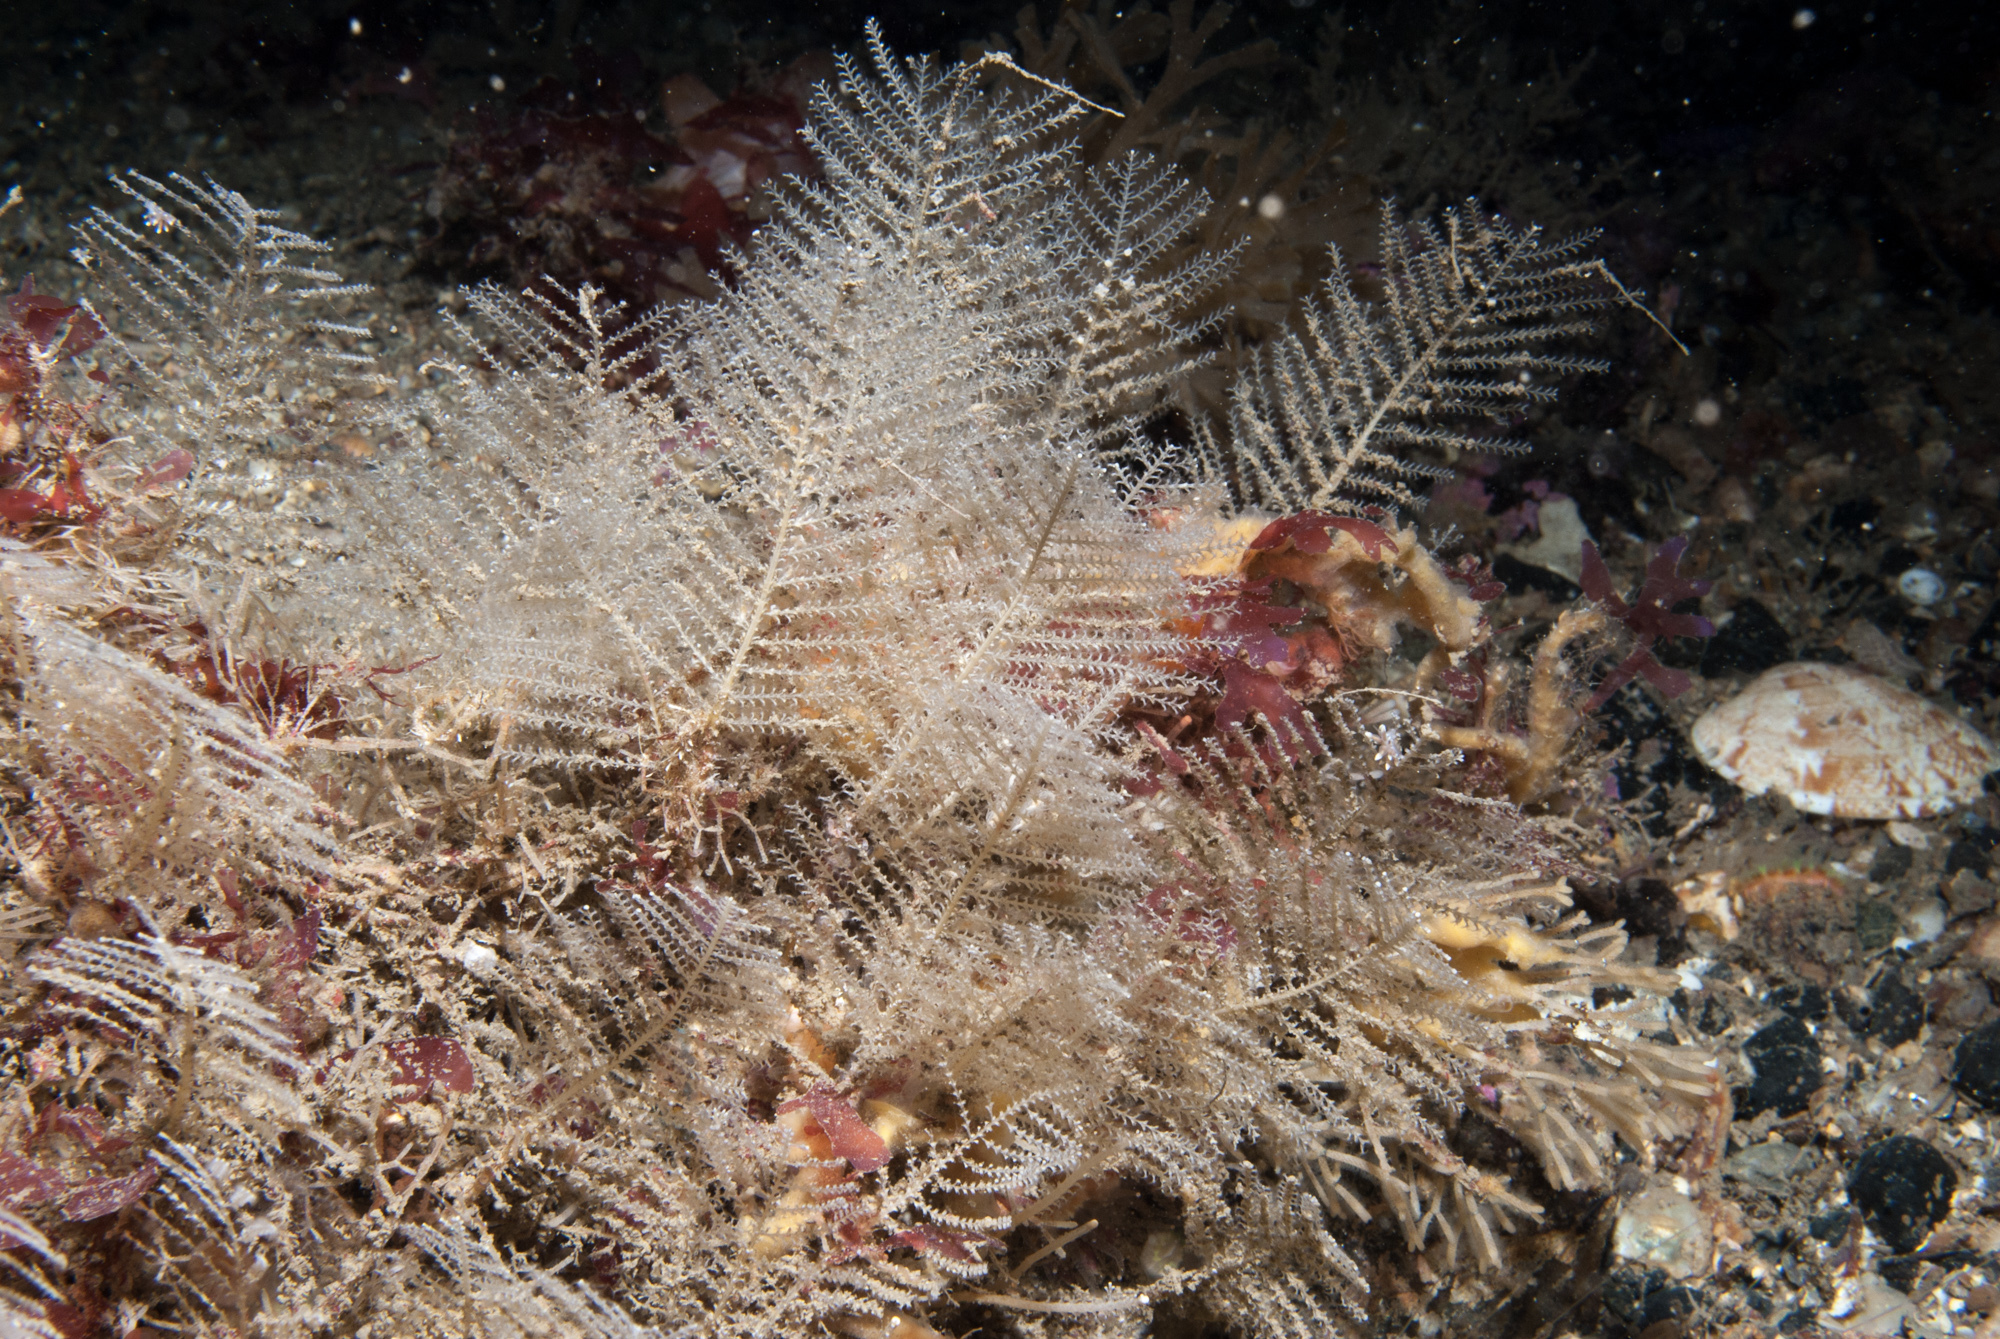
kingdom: Animalia
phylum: Cnidaria
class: Hydrozoa
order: Leptothecata
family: Sertulariidae
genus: Diphasia
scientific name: Diphasia margareta
